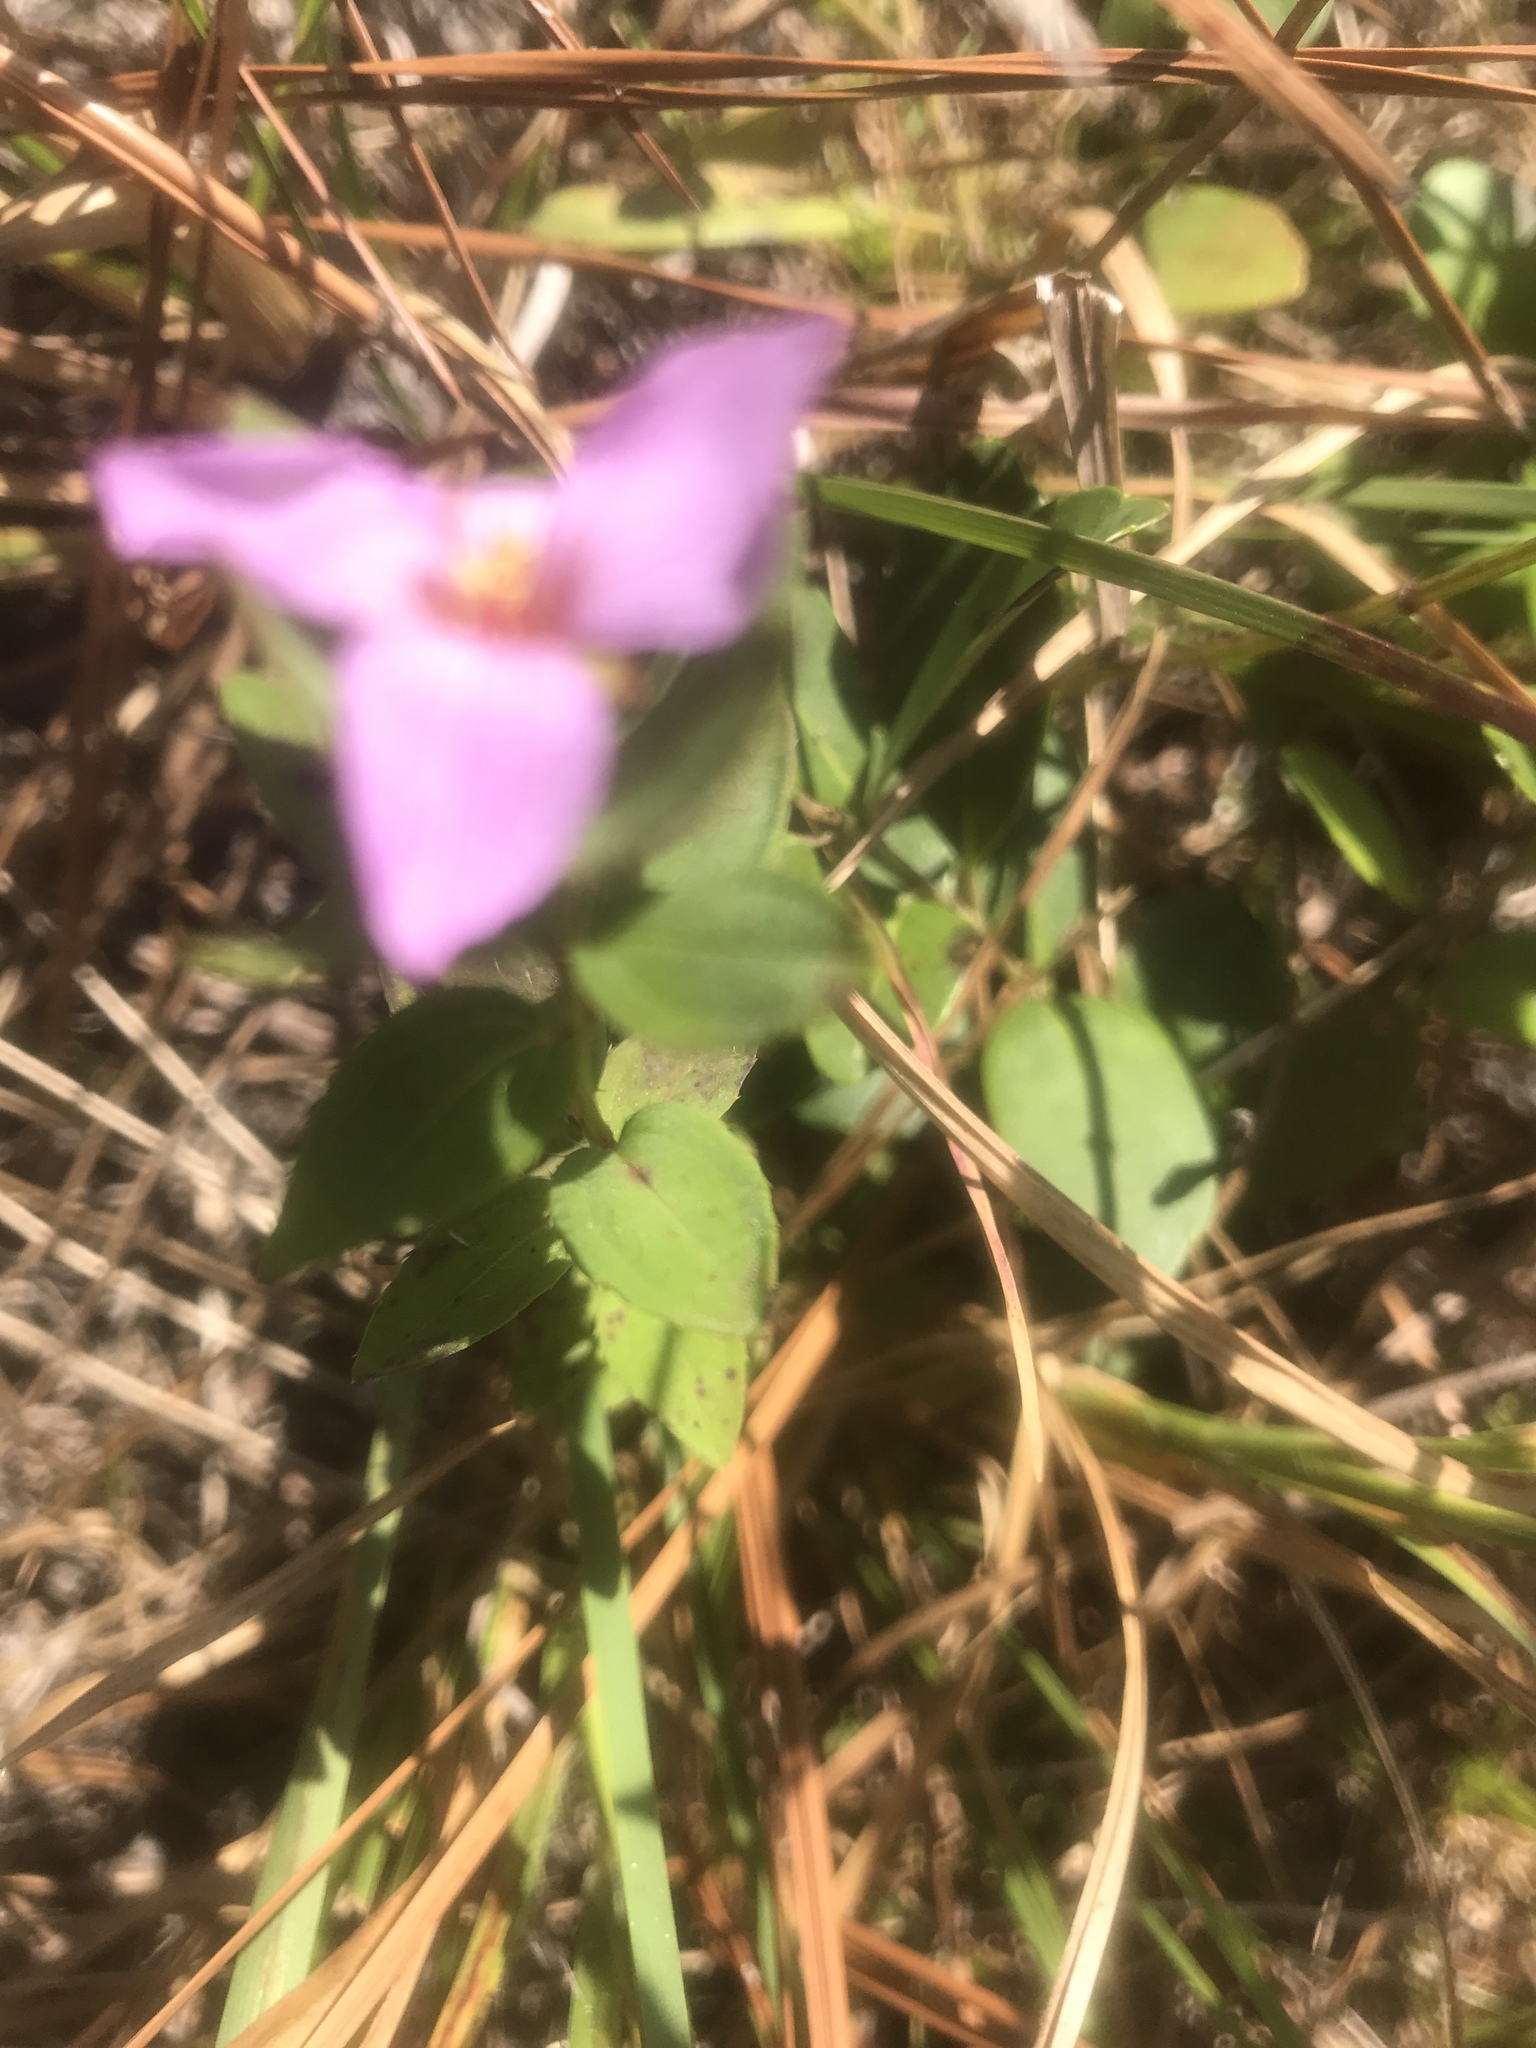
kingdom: Plantae
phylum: Tracheophyta
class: Magnoliopsida
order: Myrtales
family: Melastomataceae
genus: Rhexia
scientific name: Rhexia petiolata
